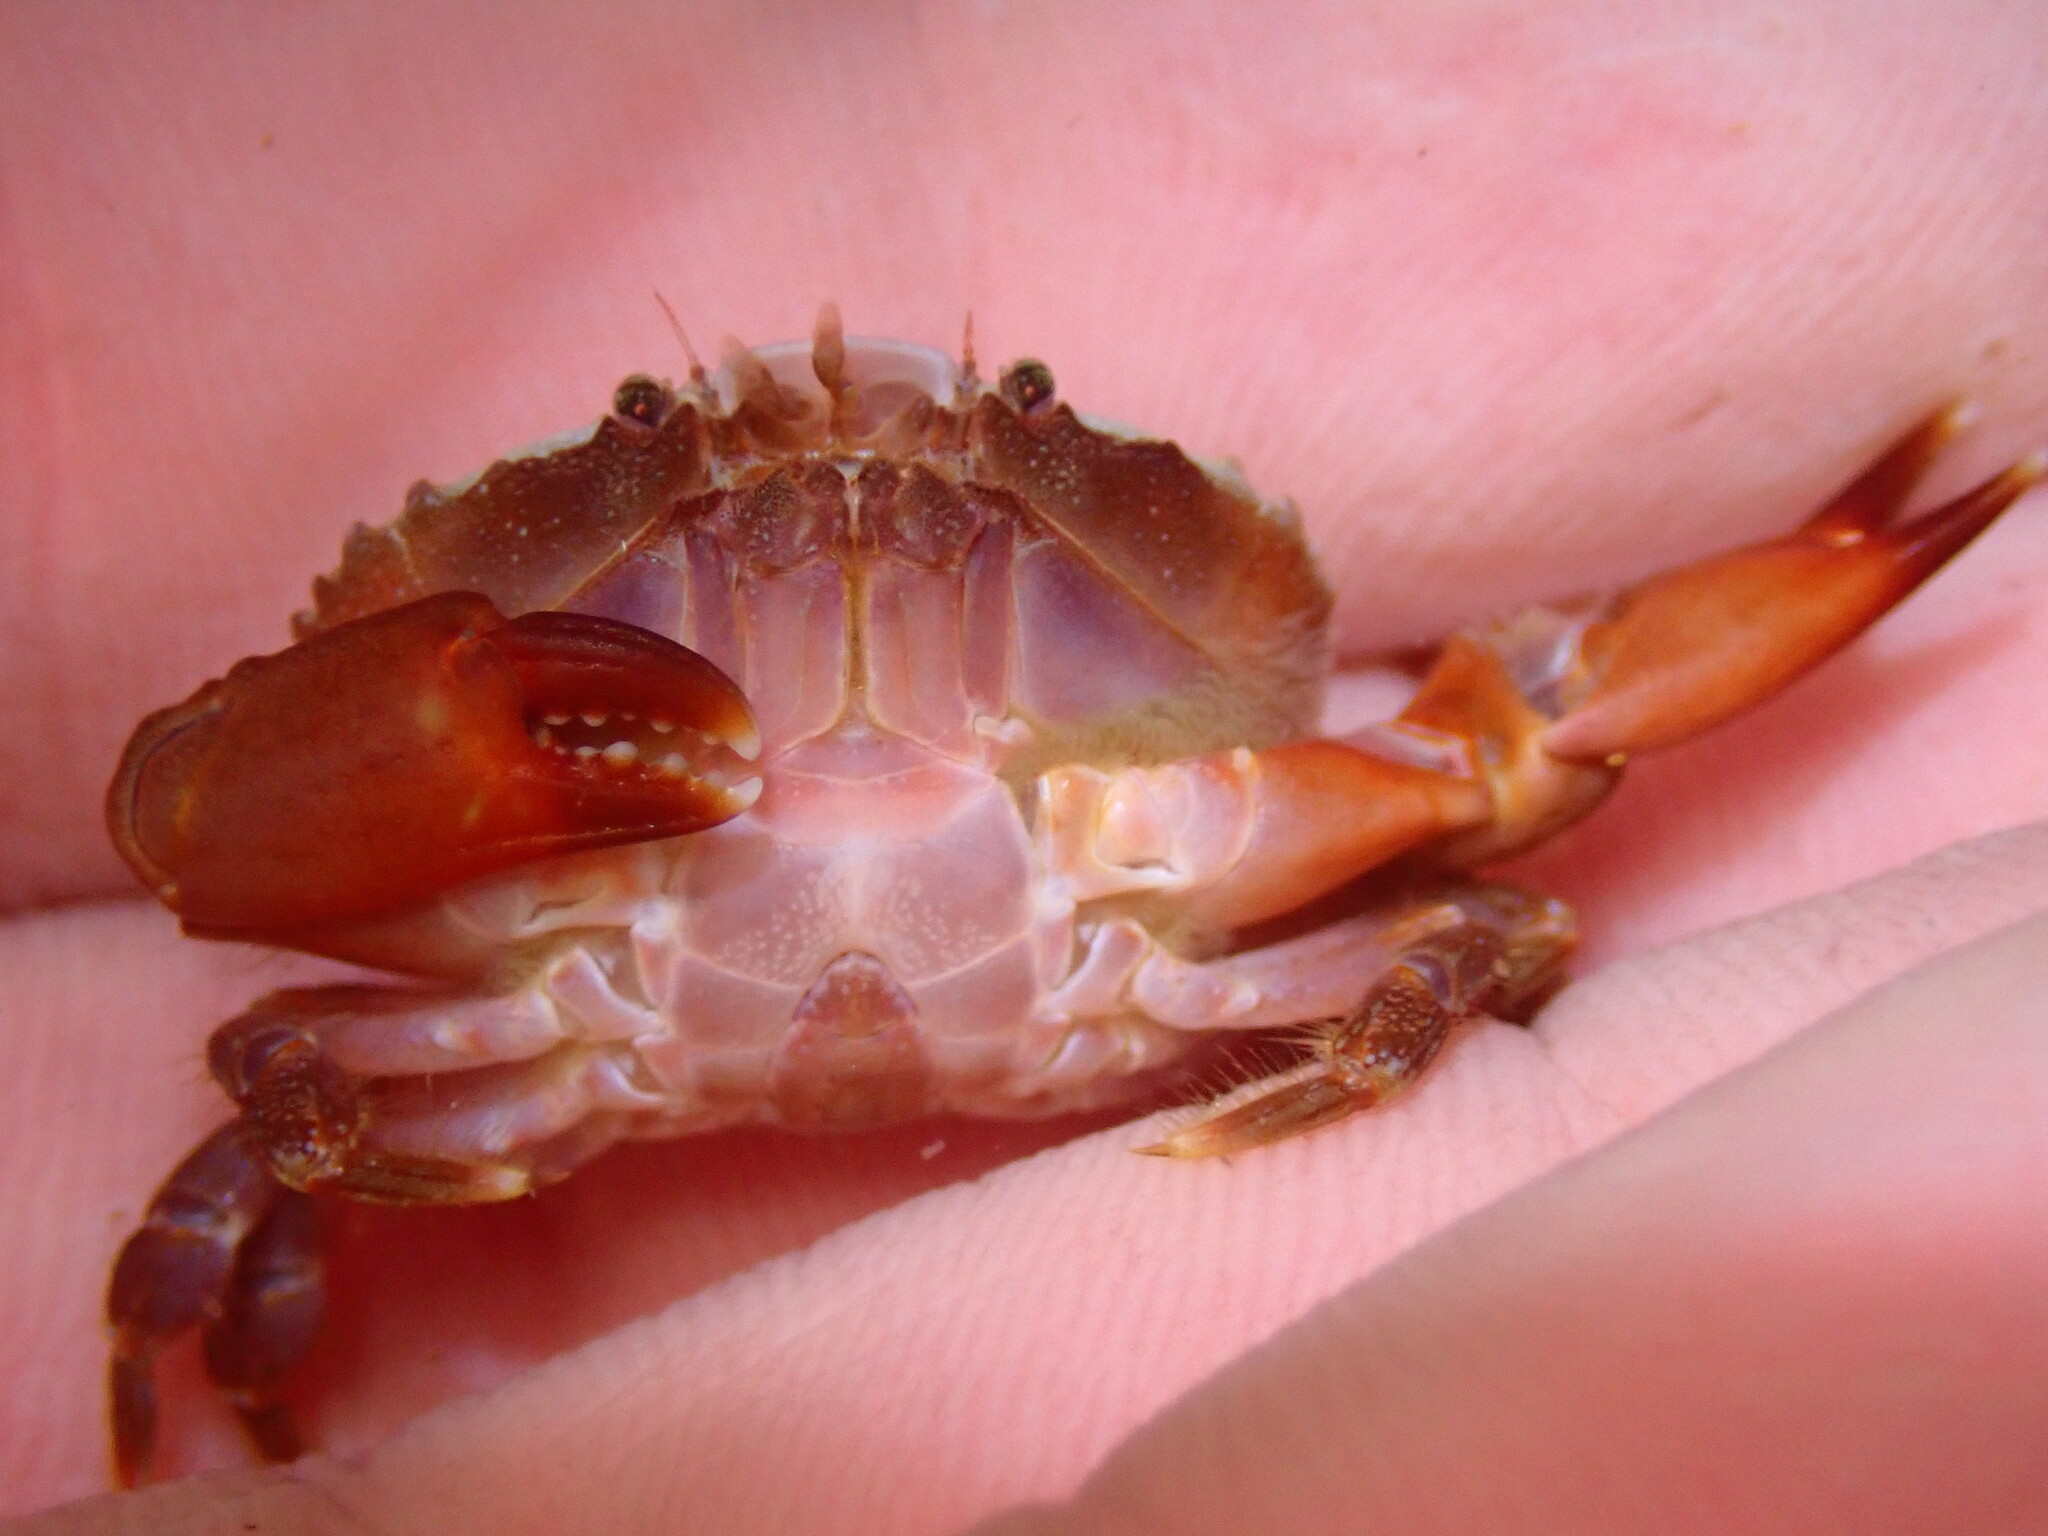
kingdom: Animalia
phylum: Arthropoda
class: Malacostraca
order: Decapoda
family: Xanthidae
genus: Cycloxanthops
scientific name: Cycloxanthops novemdentatus
